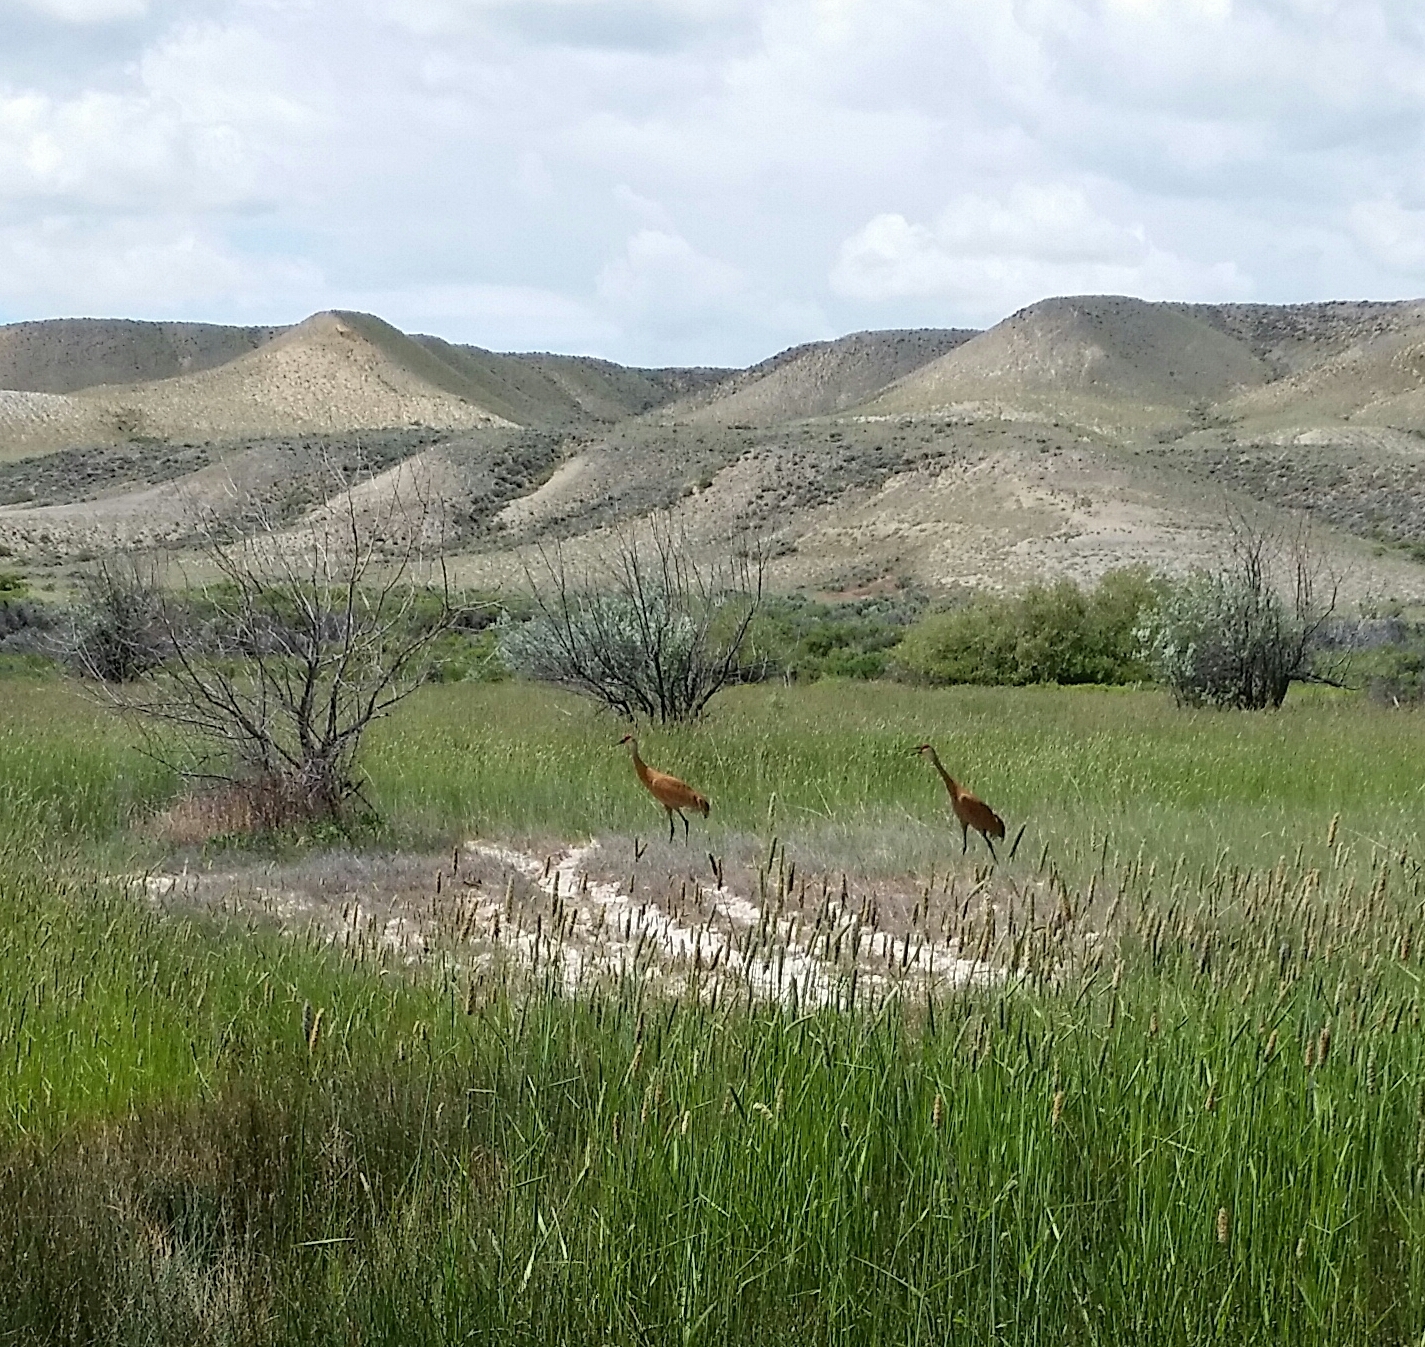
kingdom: Animalia
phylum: Chordata
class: Aves
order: Gruiformes
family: Gruidae
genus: Grus
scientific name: Grus canadensis
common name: Sandhill crane
